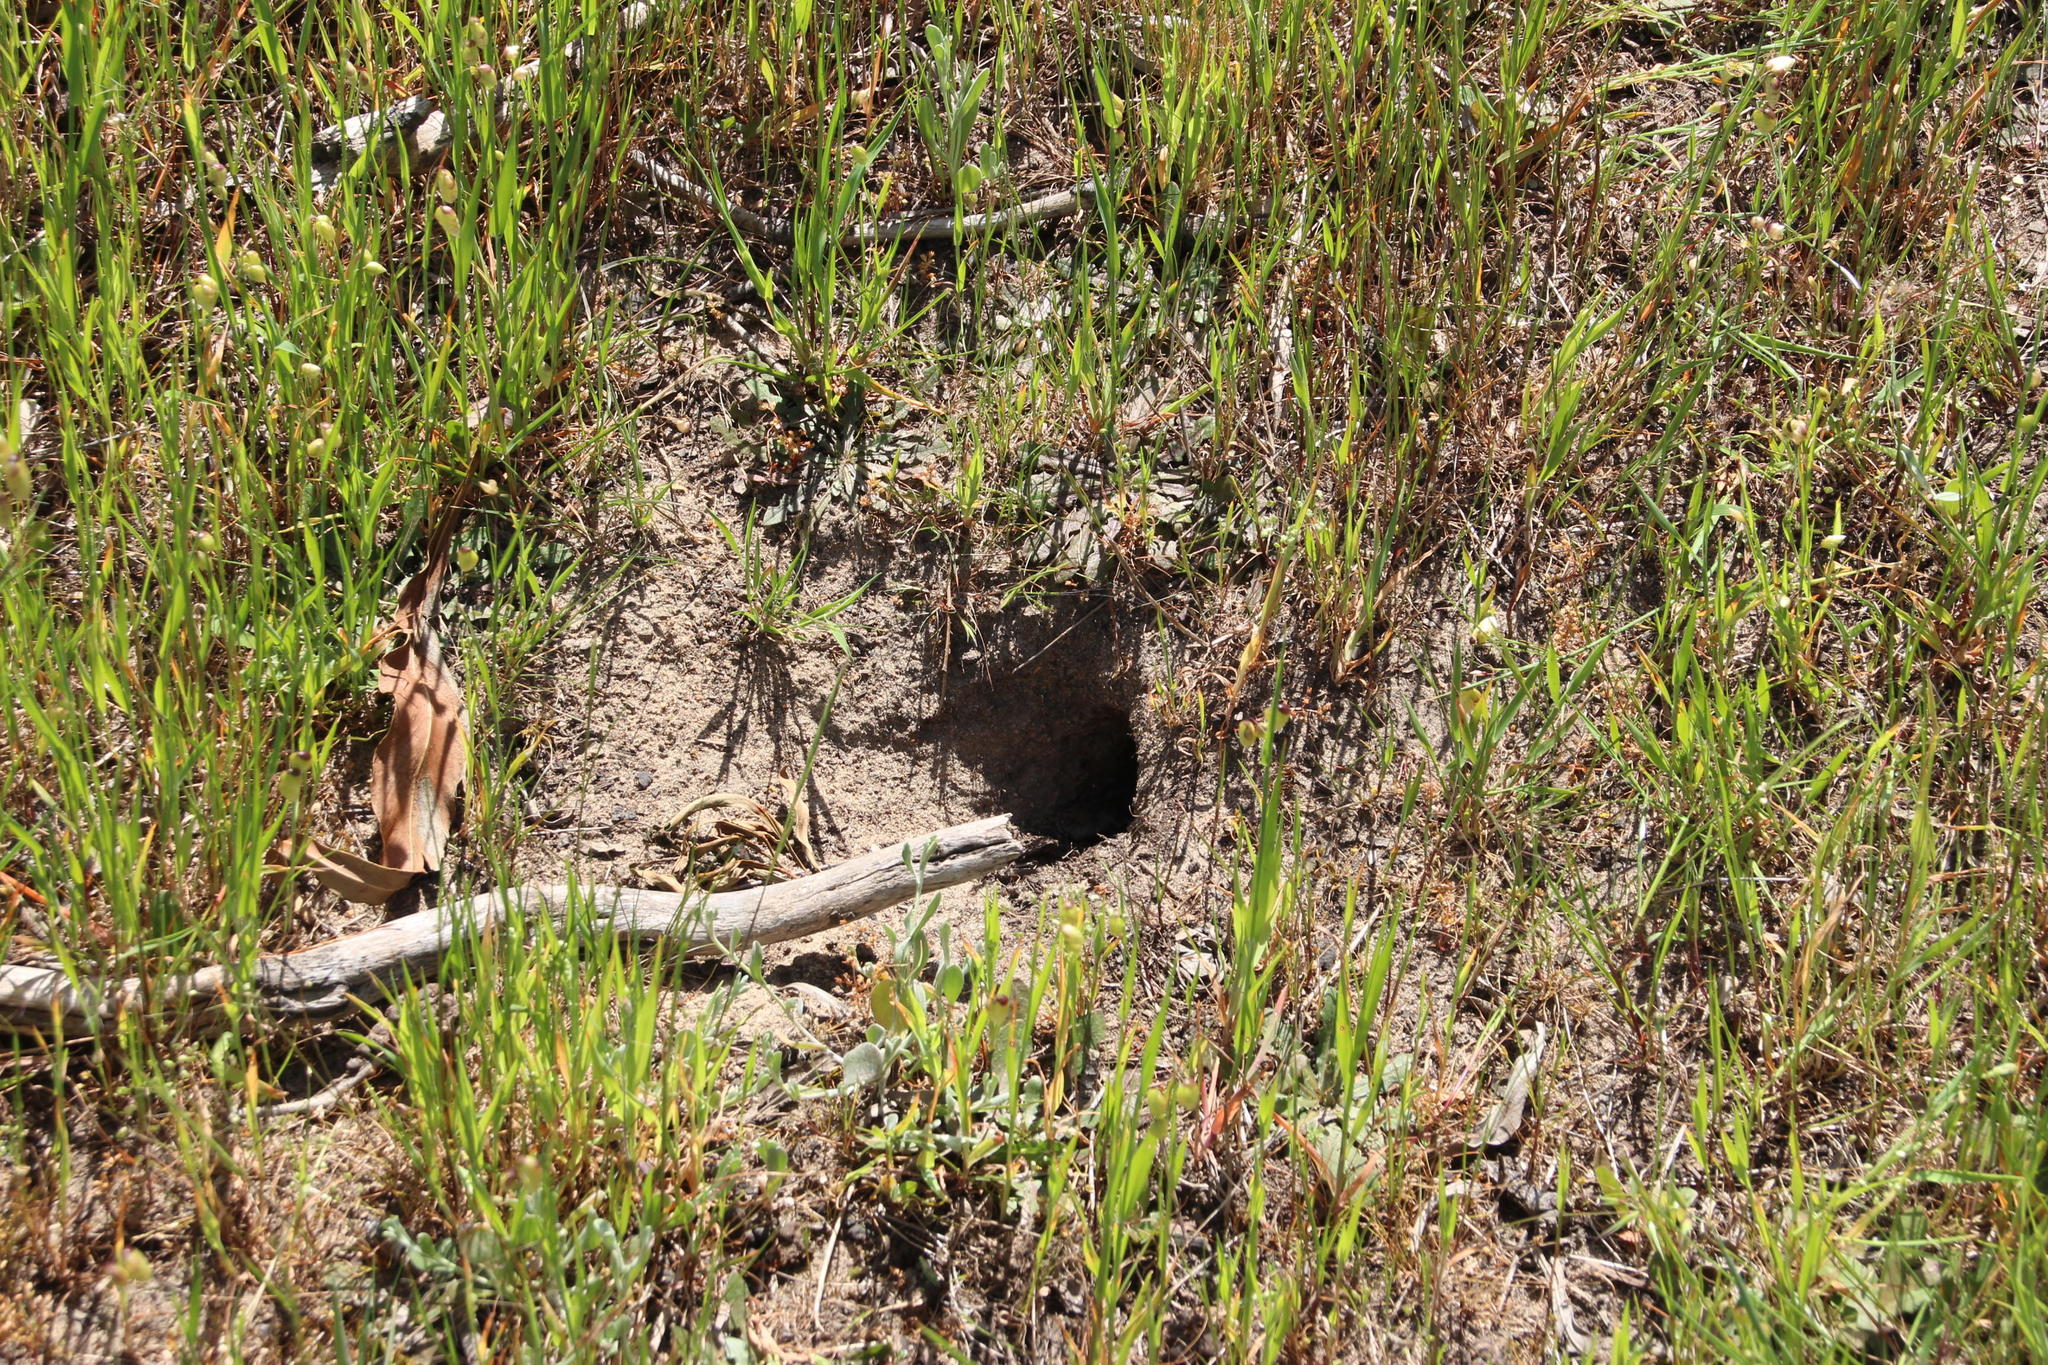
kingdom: Animalia
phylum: Chordata
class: Mammalia
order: Rodentia
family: Muridae
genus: Gerbilliscus
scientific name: Gerbilliscus afer
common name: Cape gerbil
